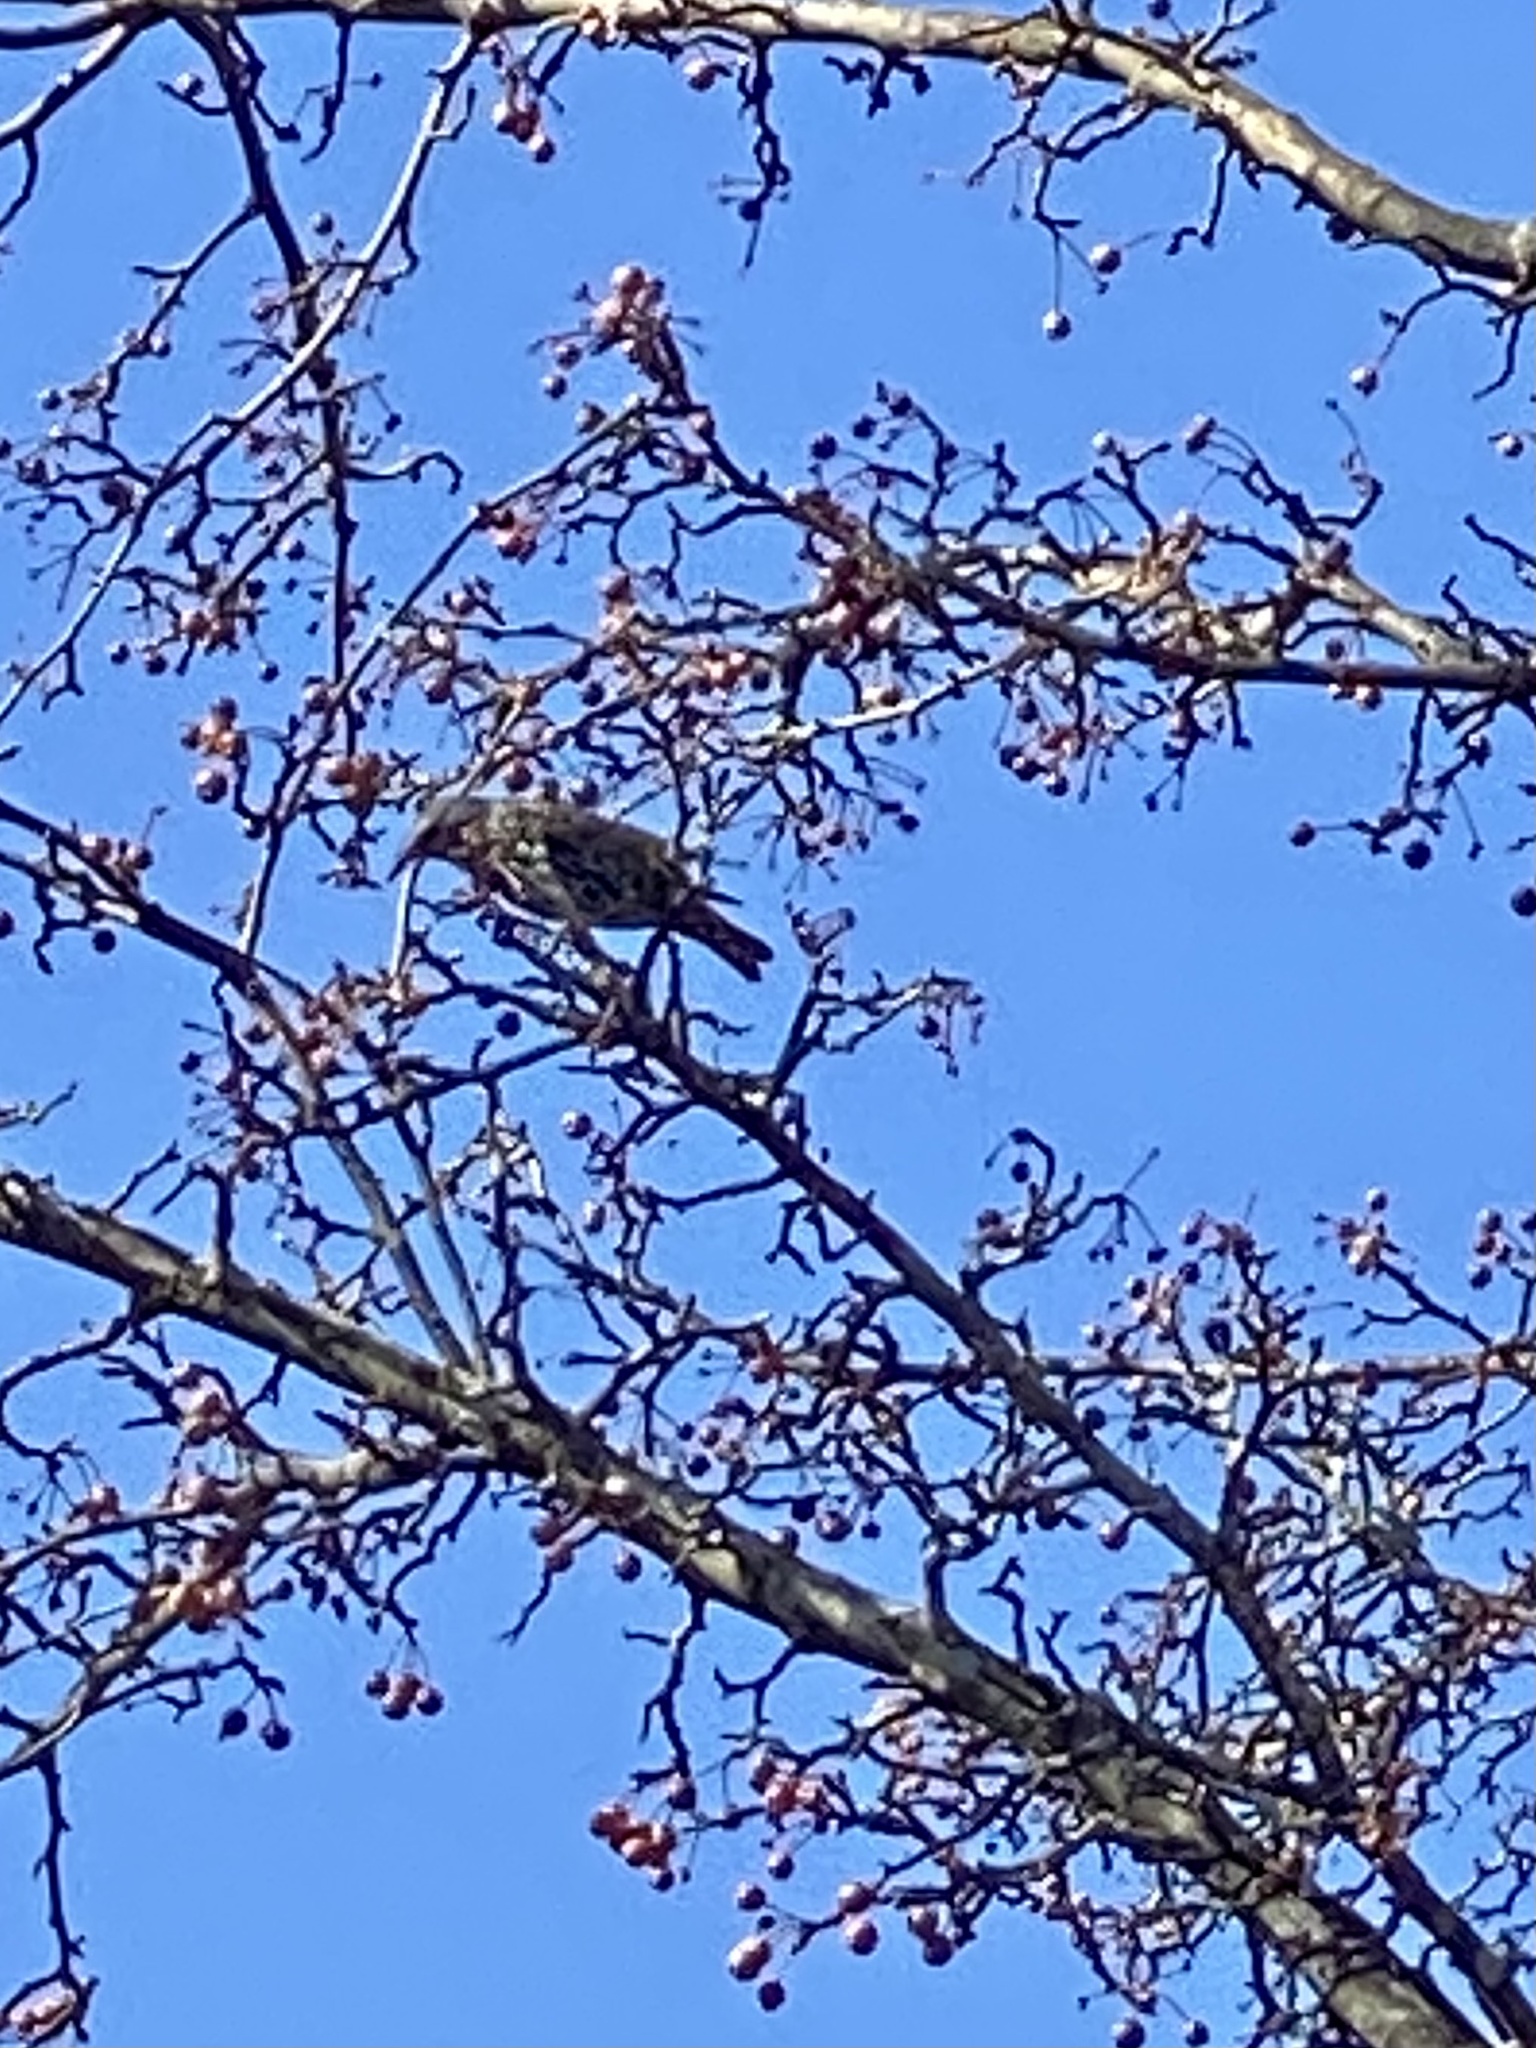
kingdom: Animalia
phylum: Chordata
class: Aves
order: Passeriformes
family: Sturnidae
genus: Sturnus
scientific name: Sturnus vulgaris
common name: Common starling
